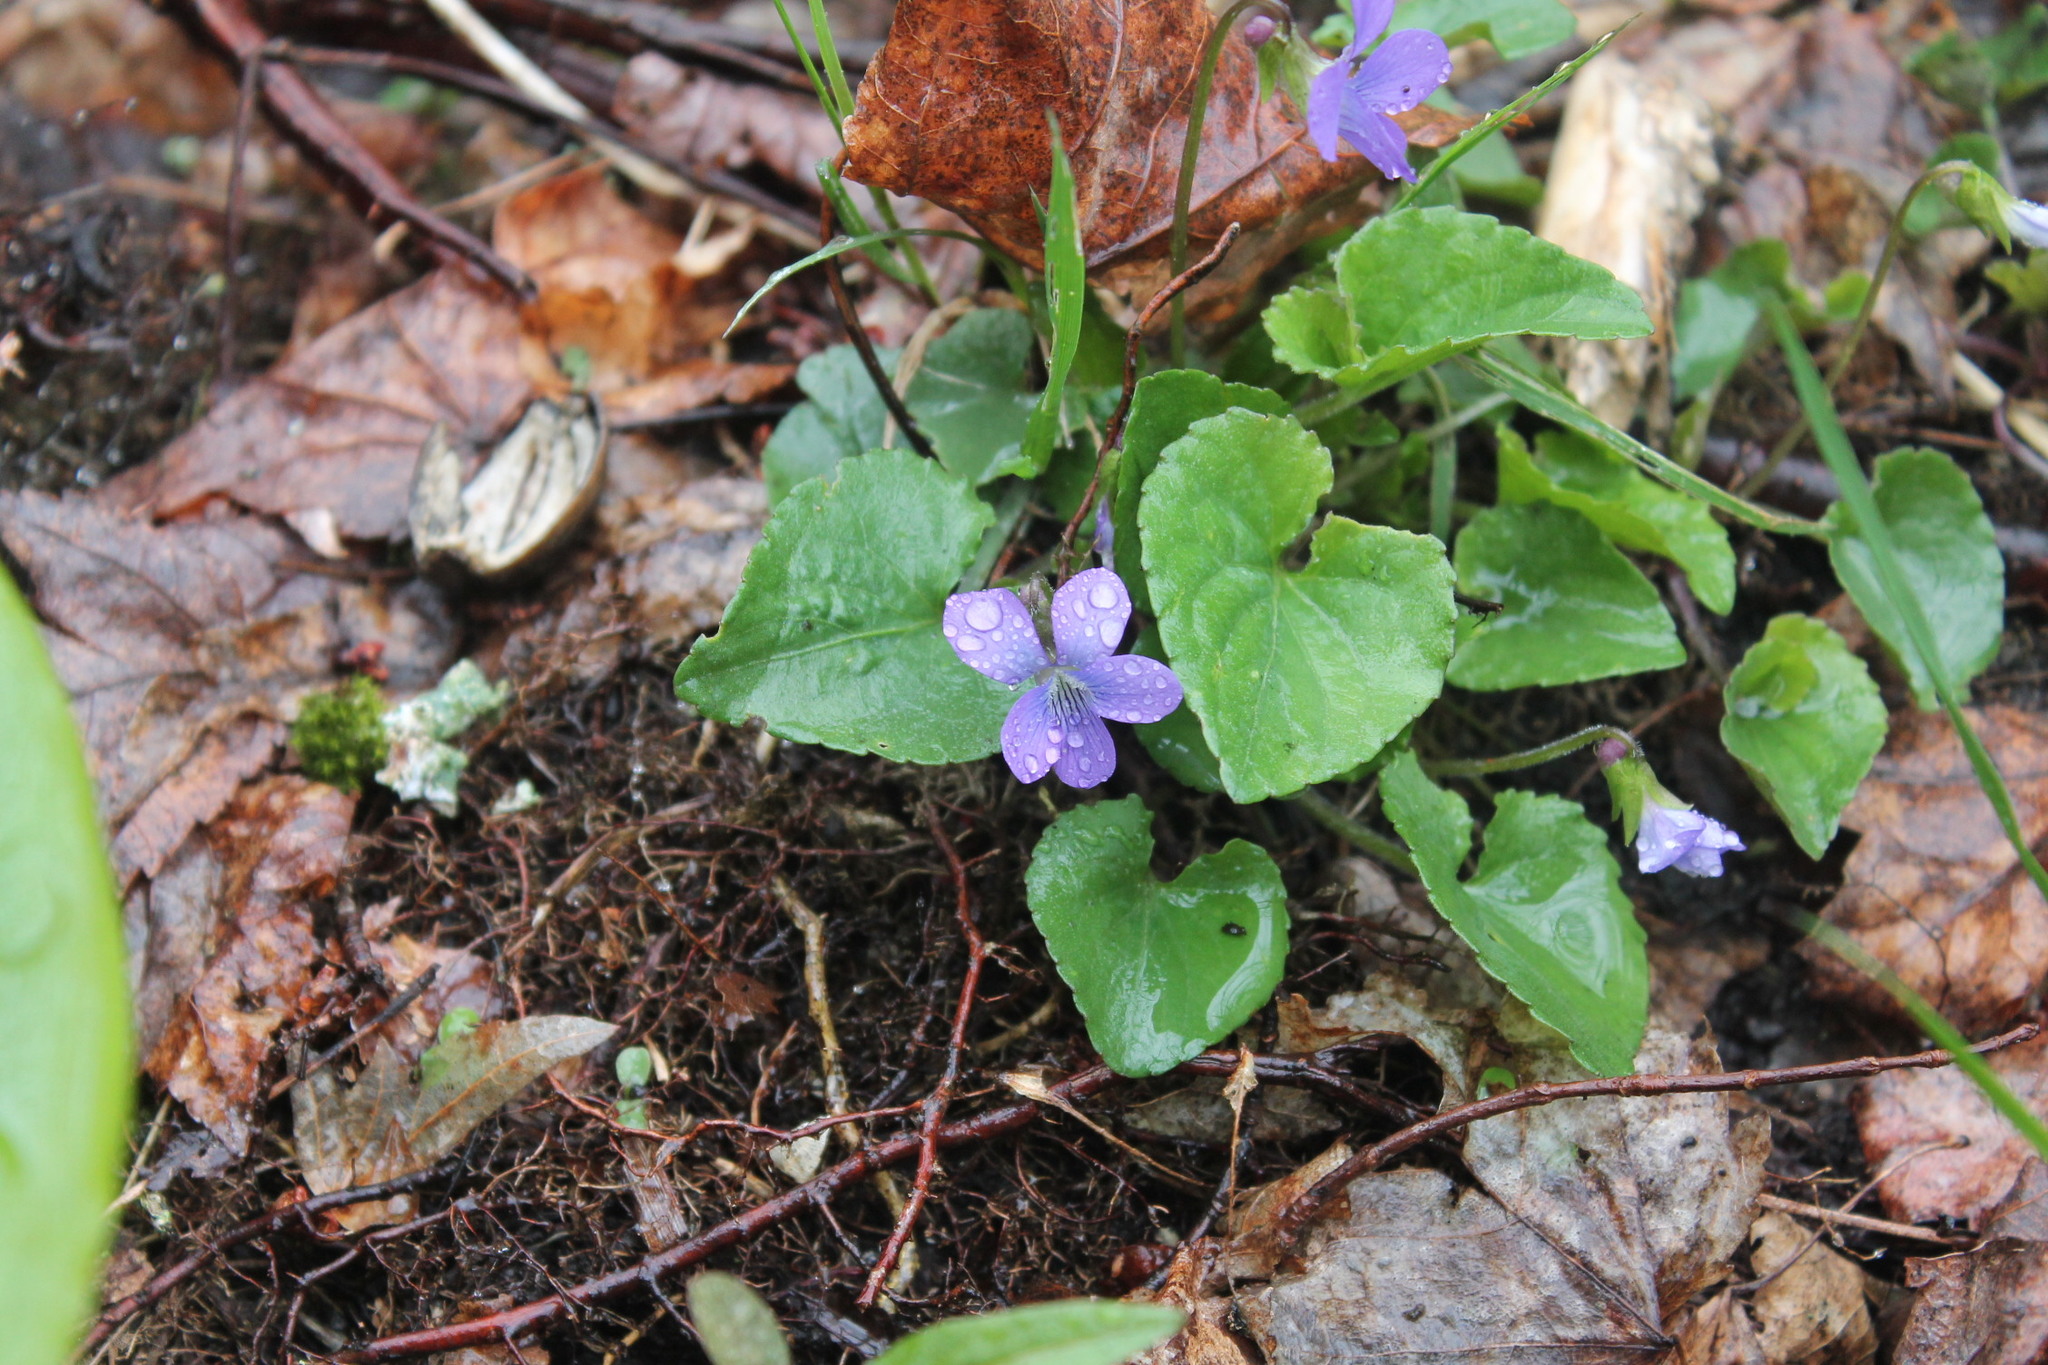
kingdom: Plantae
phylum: Tracheophyta
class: Magnoliopsida
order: Malpighiales
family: Violaceae
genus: Viola
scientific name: Viola cucullata
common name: Marsh blue violet
